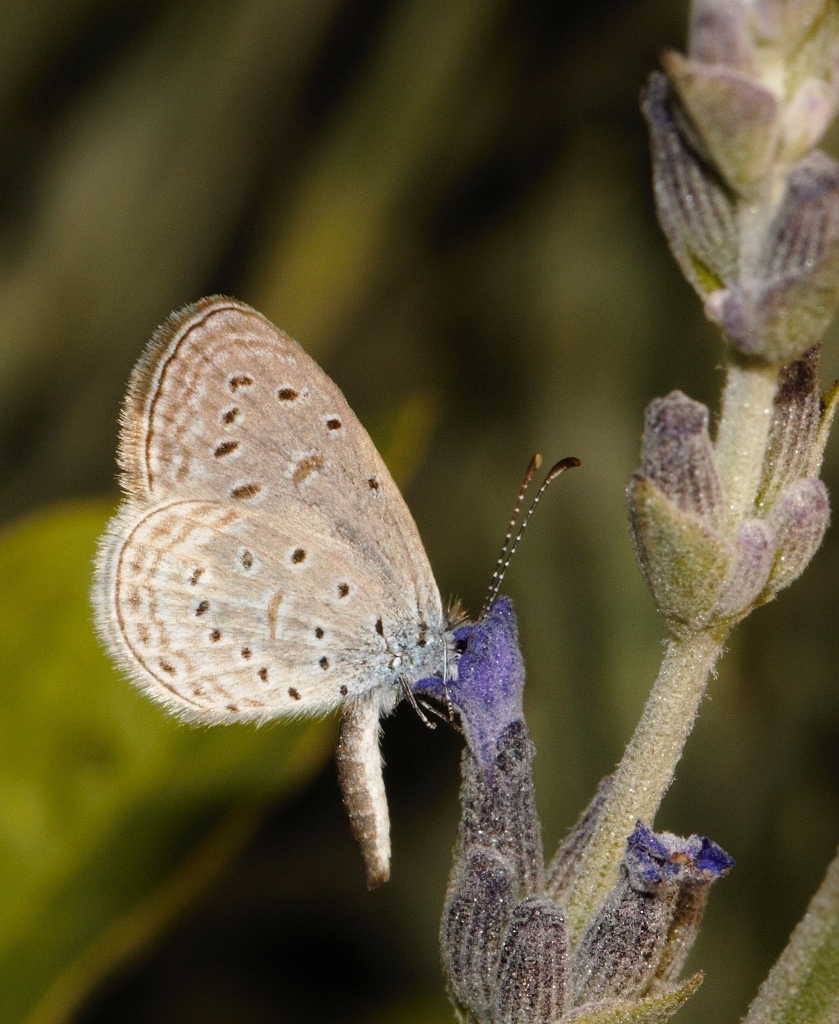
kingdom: Animalia
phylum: Arthropoda
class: Insecta
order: Lepidoptera
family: Lycaenidae
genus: Zizula
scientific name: Zizula hylax
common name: Gaika blue
